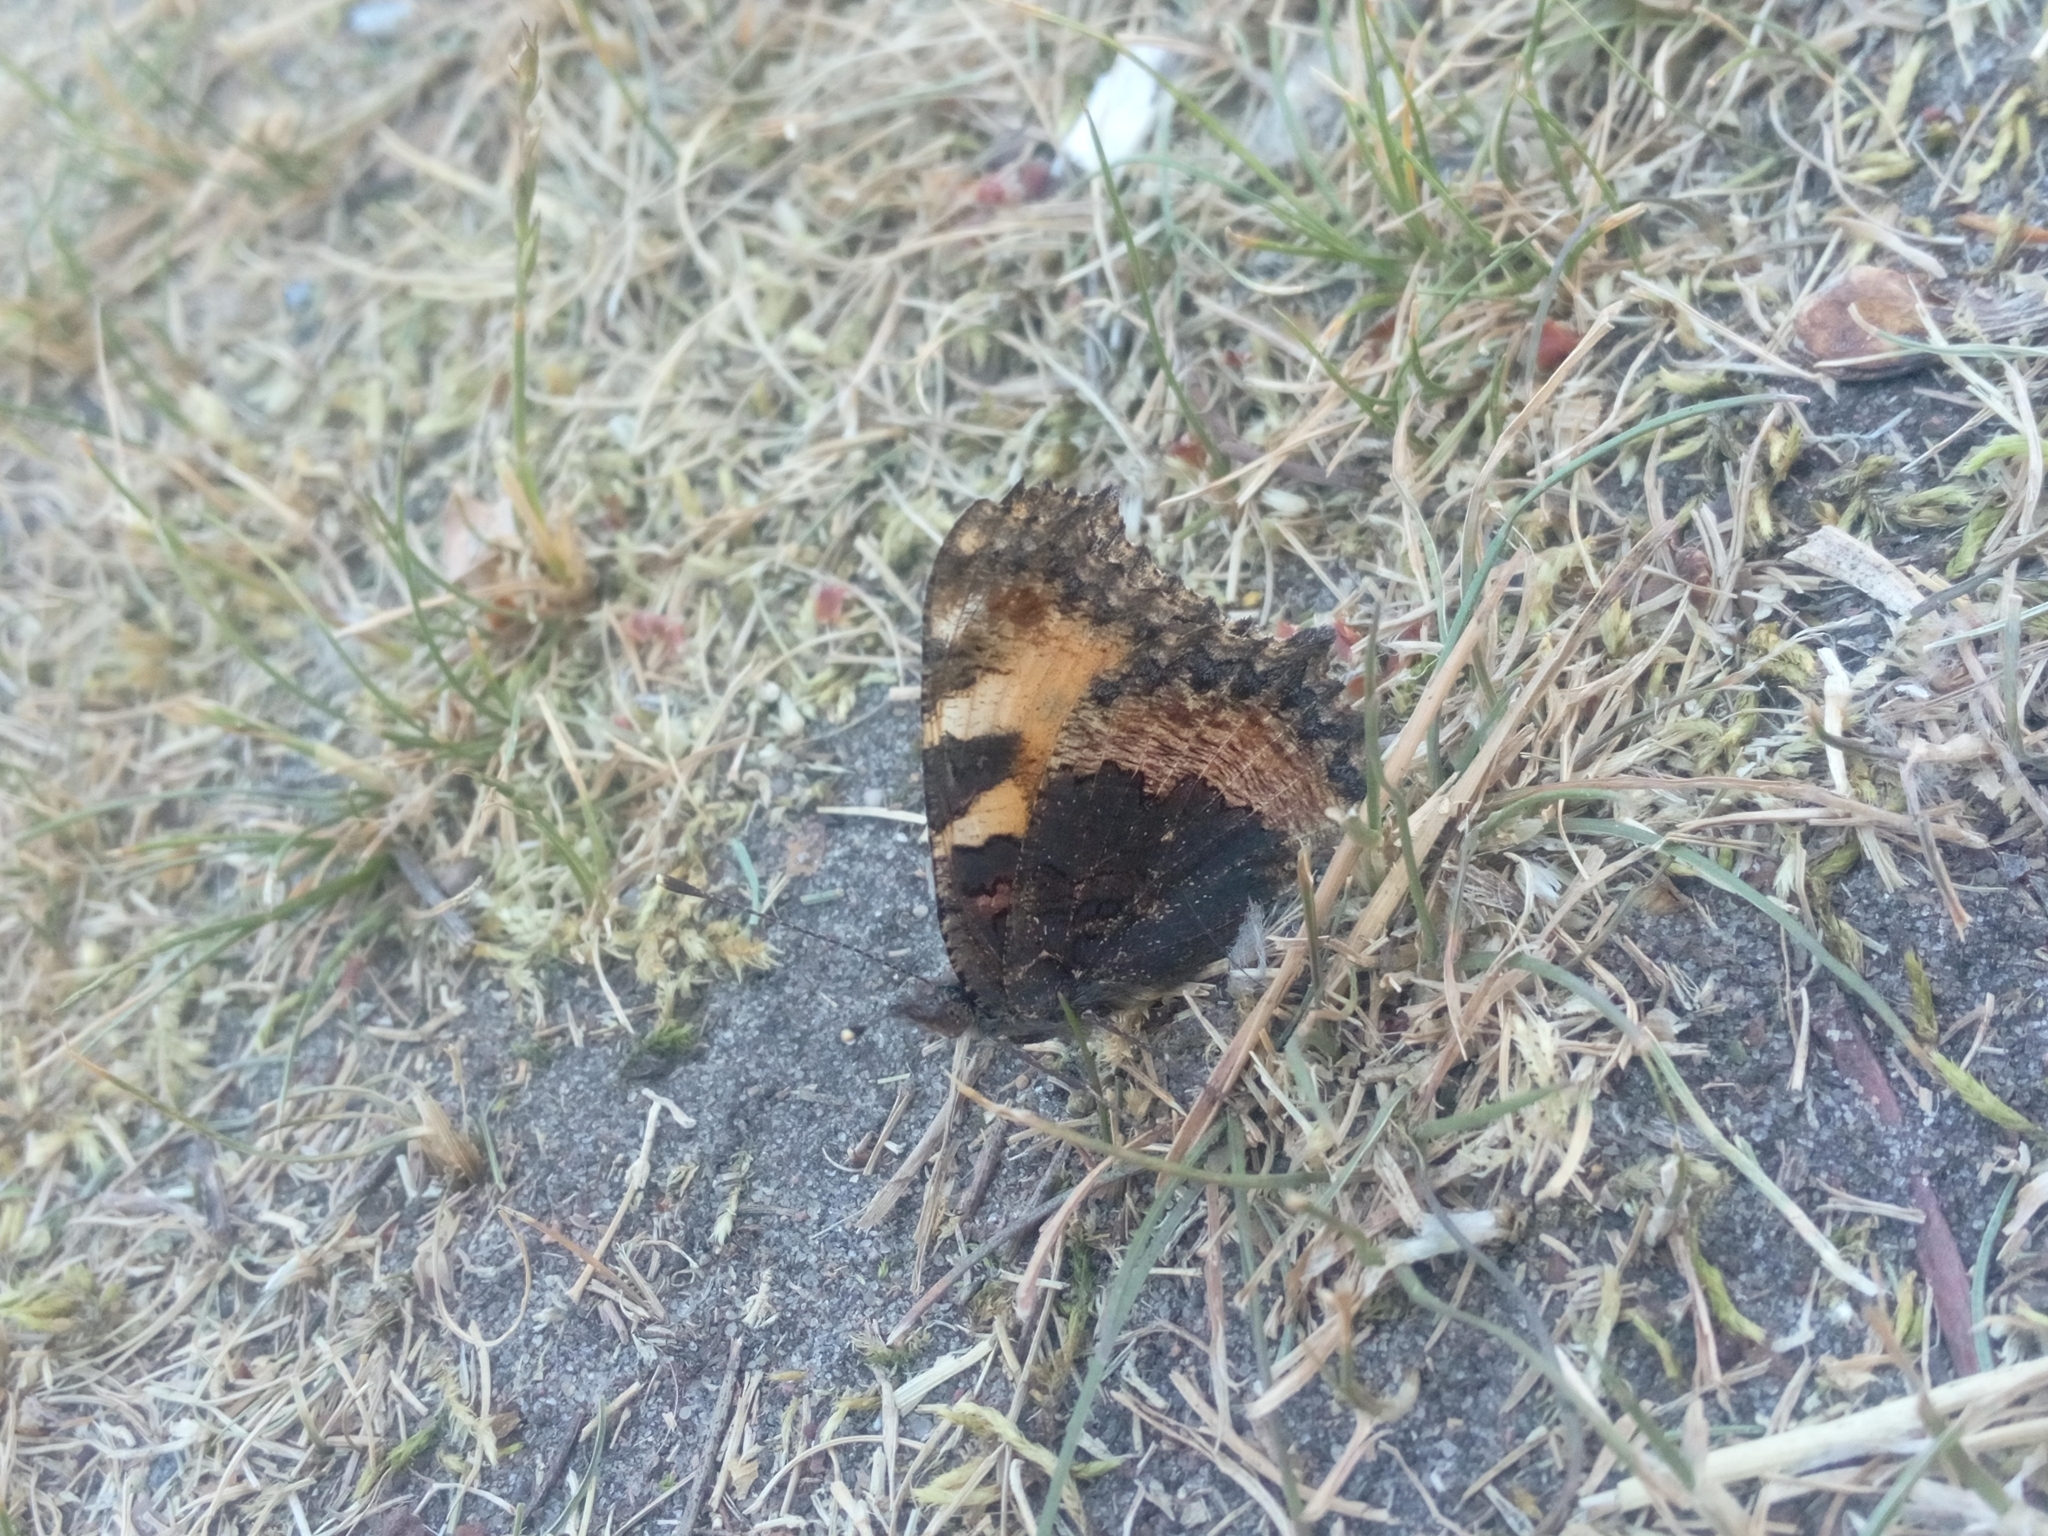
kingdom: Animalia
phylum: Arthropoda
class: Insecta
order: Lepidoptera
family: Nymphalidae
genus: Aglais
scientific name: Aglais urticae
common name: Small tortoiseshell
